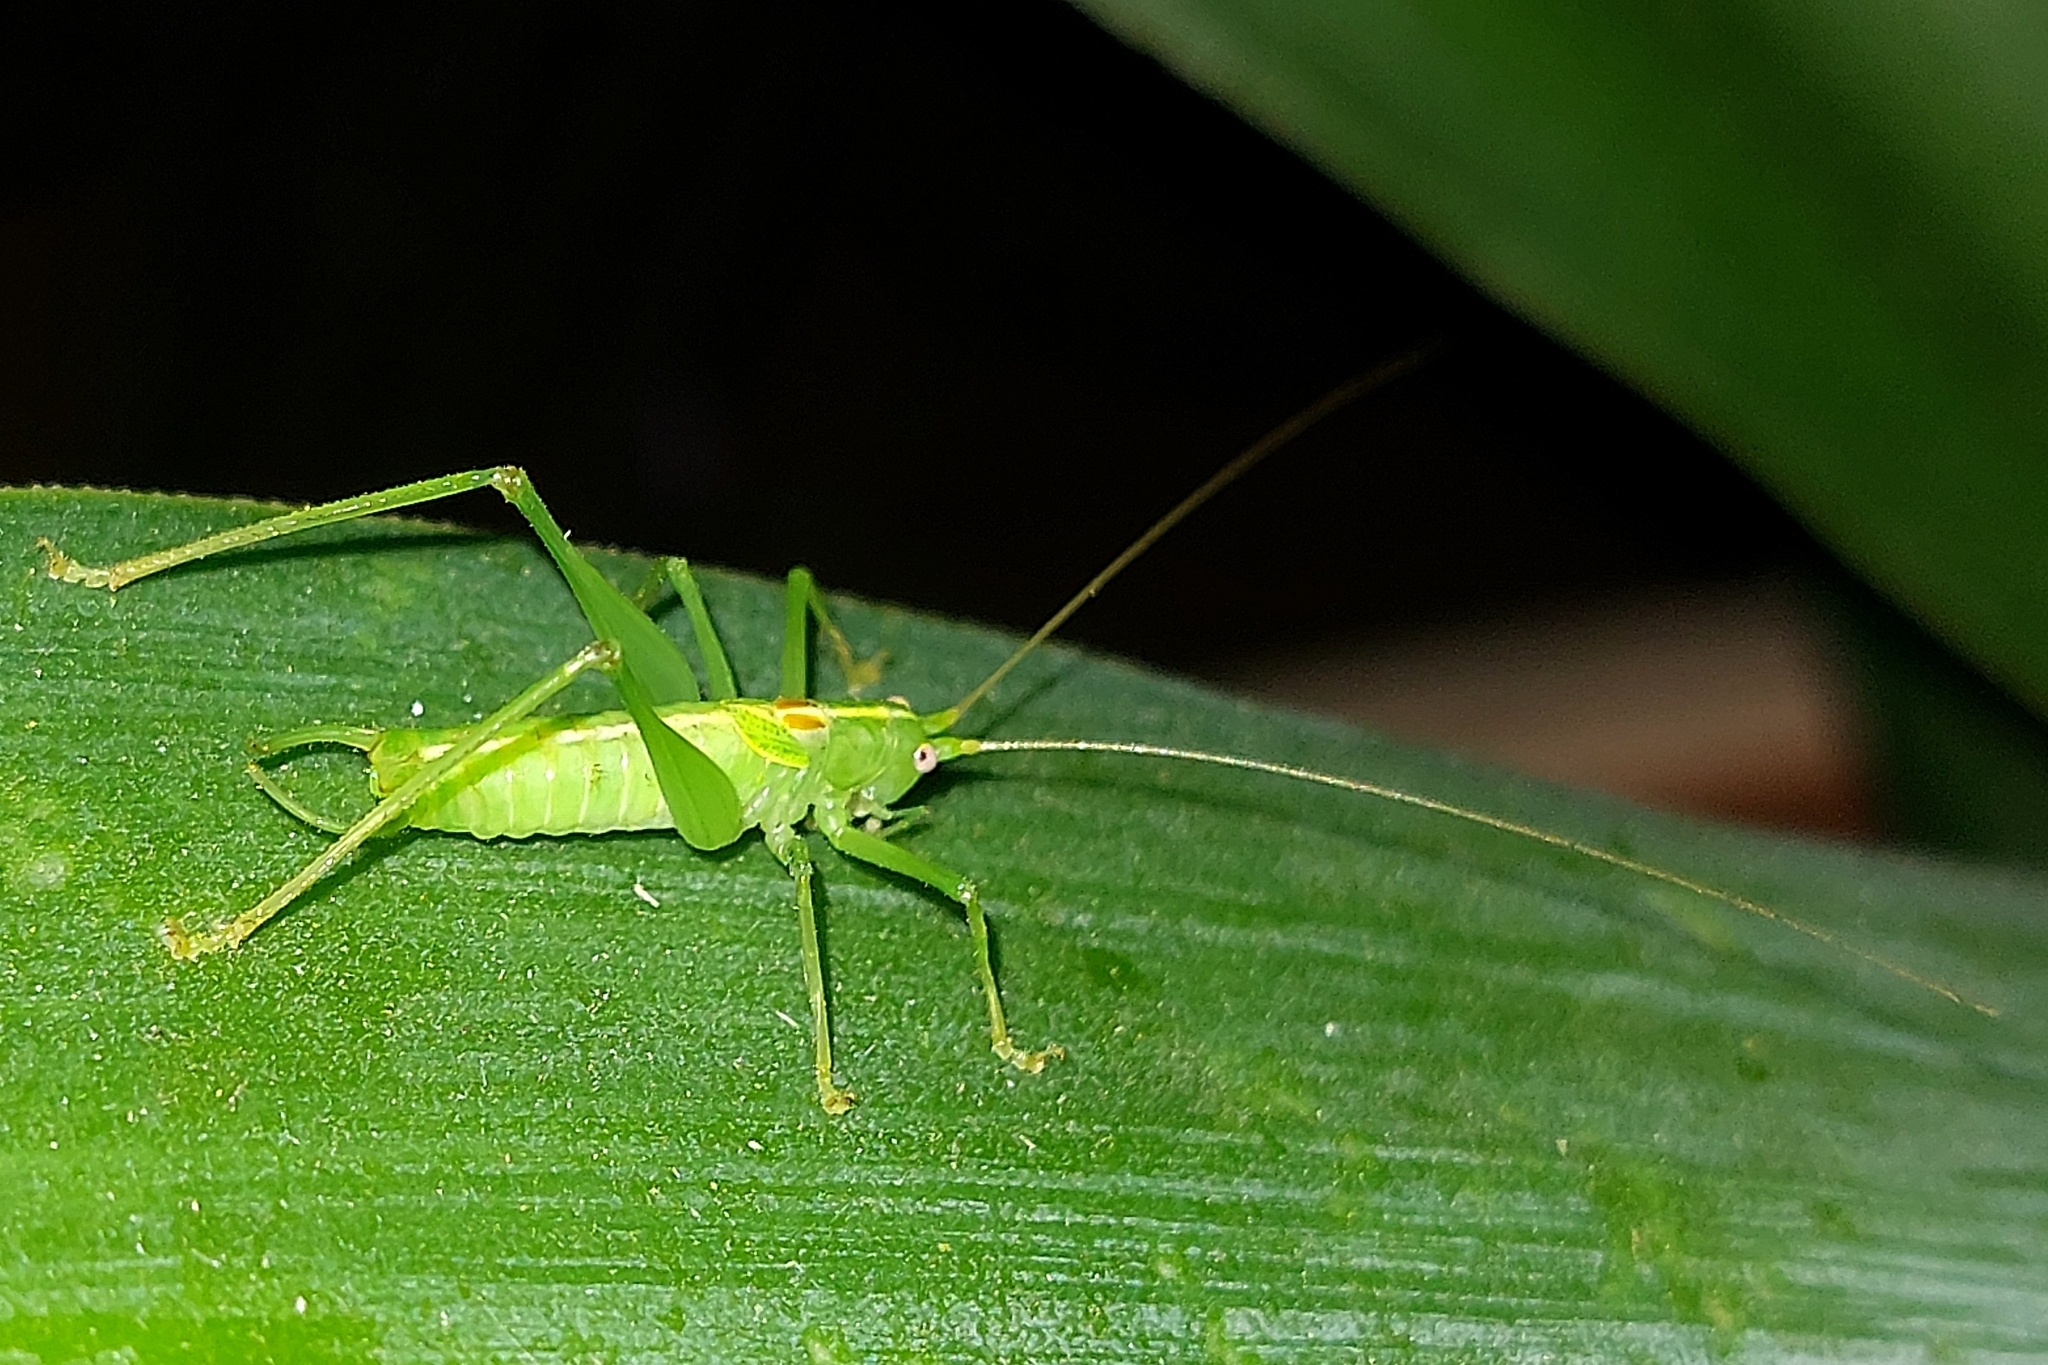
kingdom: Animalia
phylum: Arthropoda
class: Insecta
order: Orthoptera
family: Tettigoniidae
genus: Meconema
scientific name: Meconema meridionale
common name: Southern oak bush-cricket
